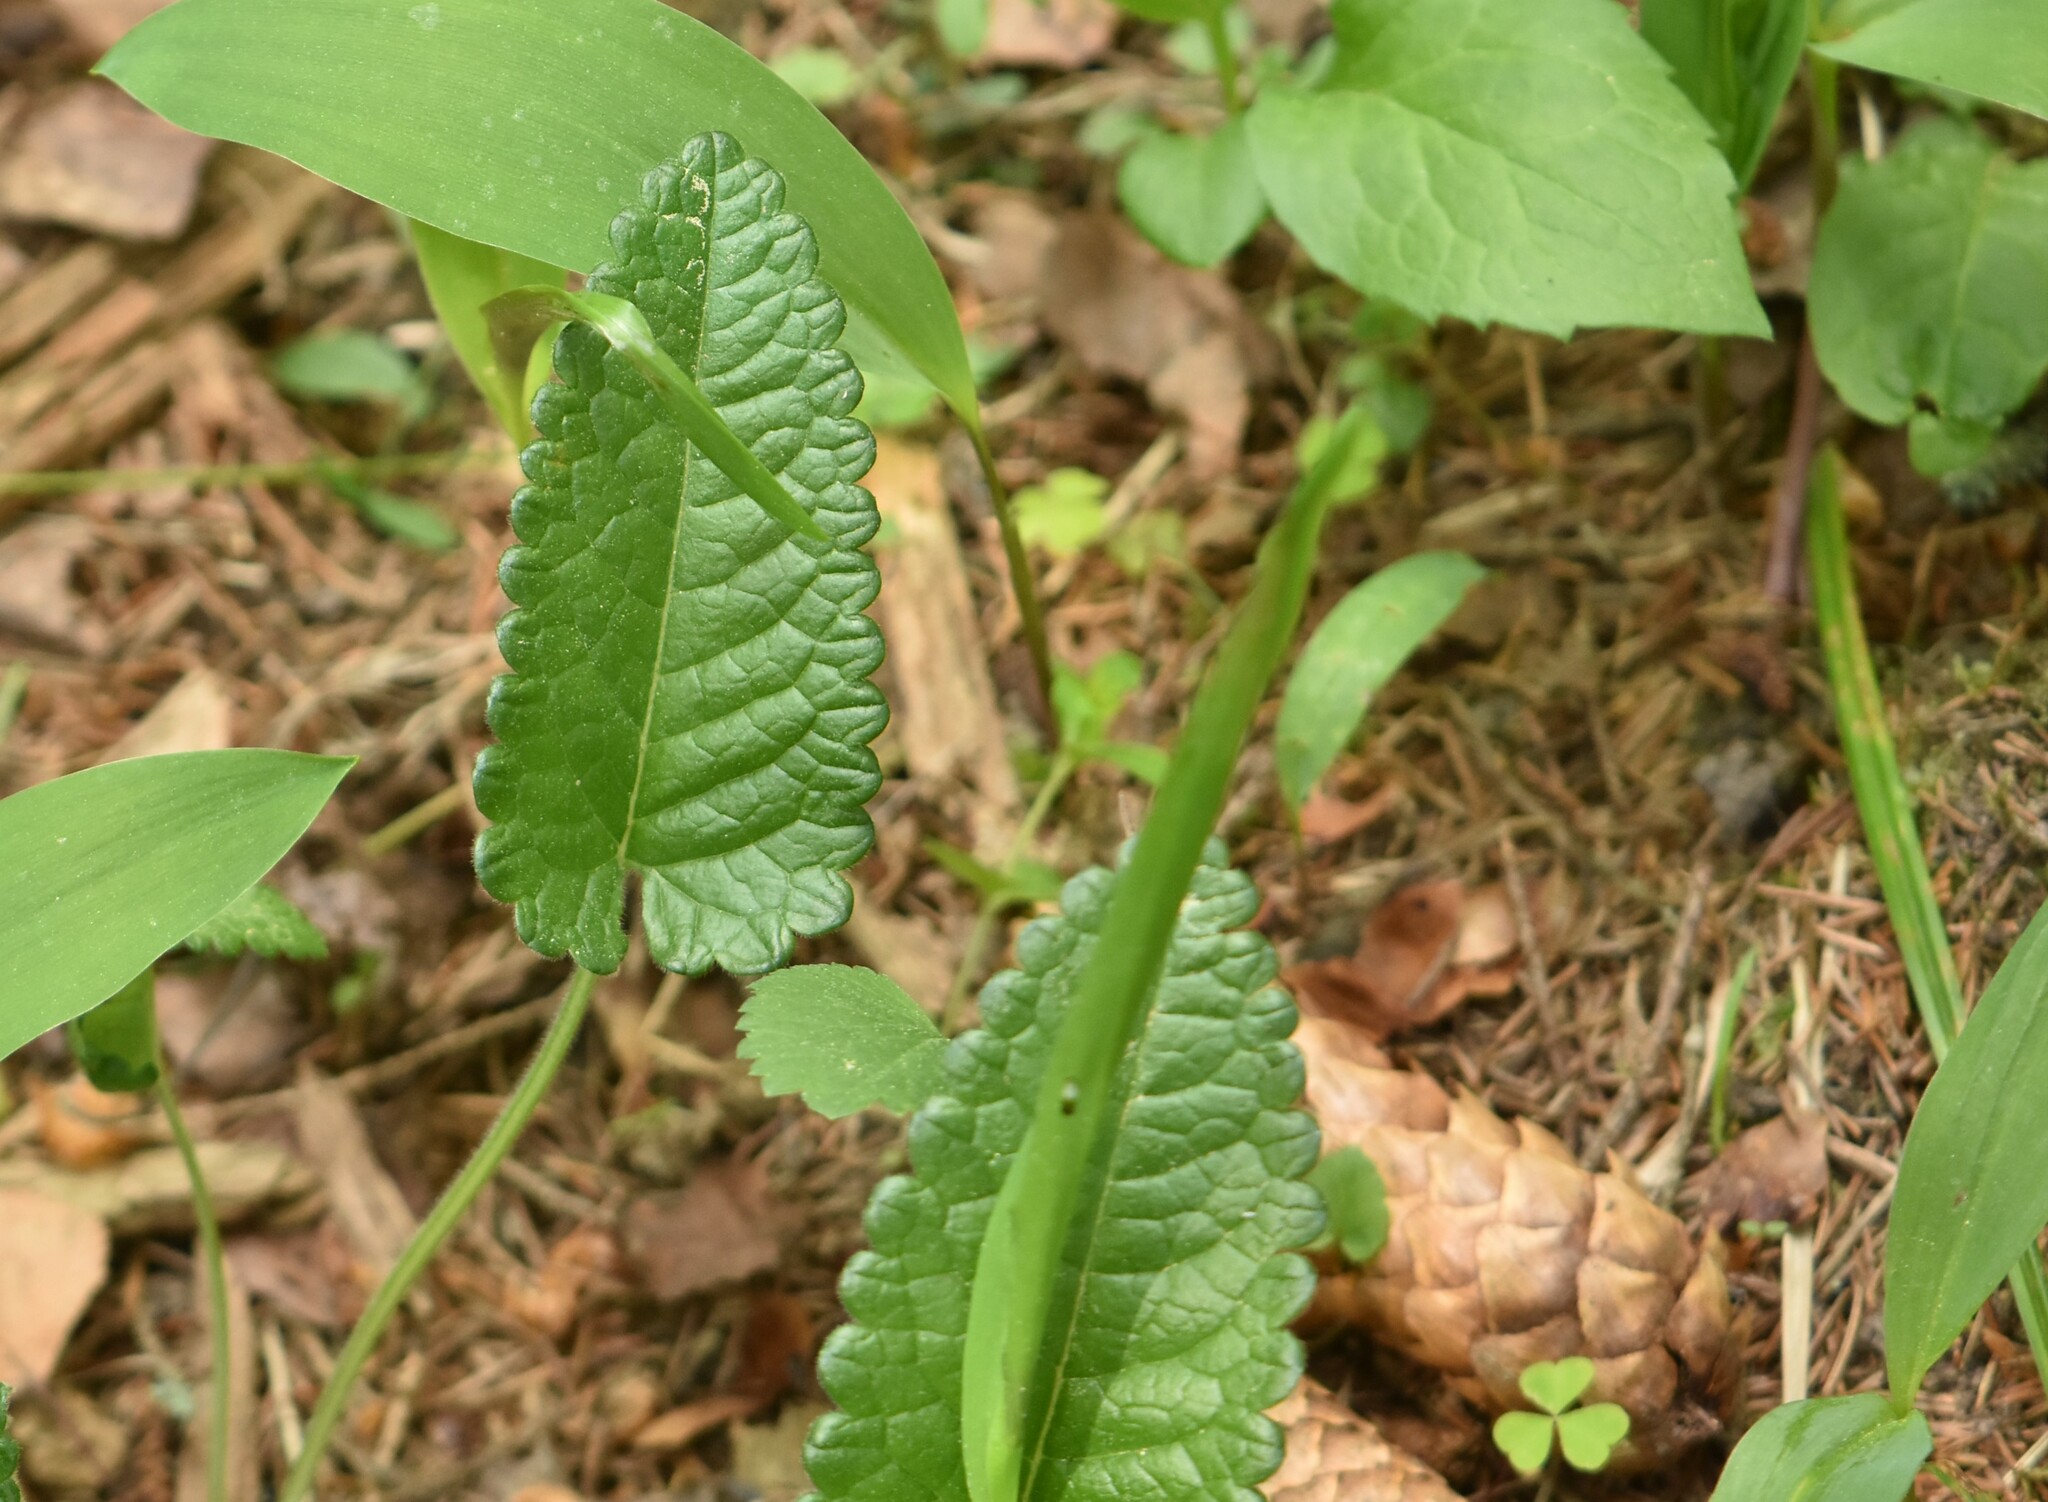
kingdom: Plantae
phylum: Tracheophyta
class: Magnoliopsida
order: Lamiales
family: Lamiaceae
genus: Betonica
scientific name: Betonica officinalis
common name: Bishop's-wort
